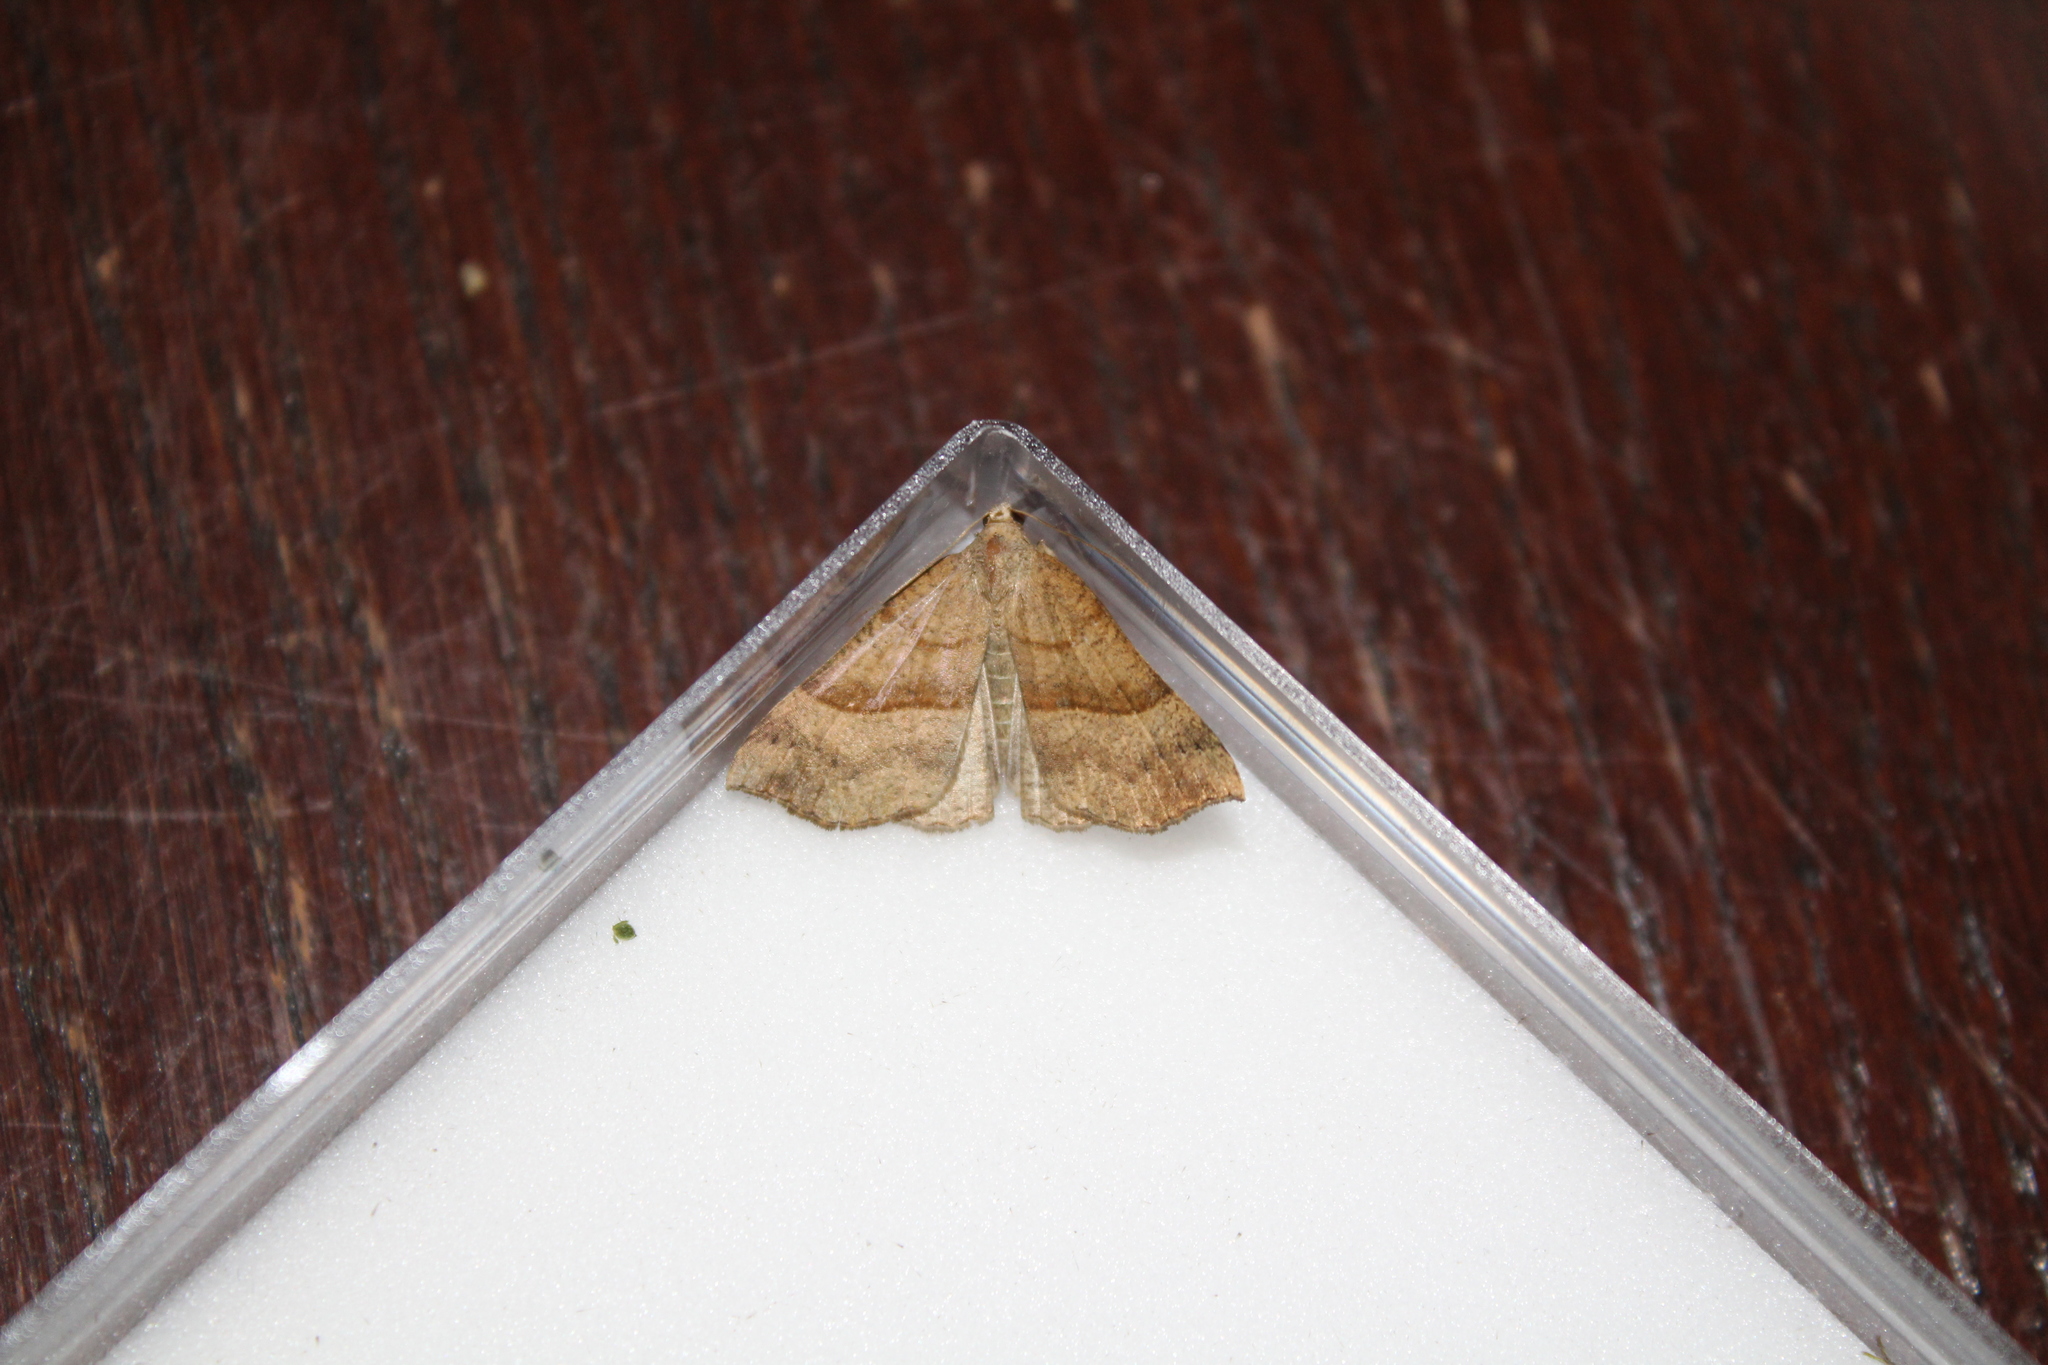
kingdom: Animalia
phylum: Arthropoda
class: Insecta
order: Lepidoptera
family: Erebidae
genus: Hypena
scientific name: Hypena proboscidalis
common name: Snout
